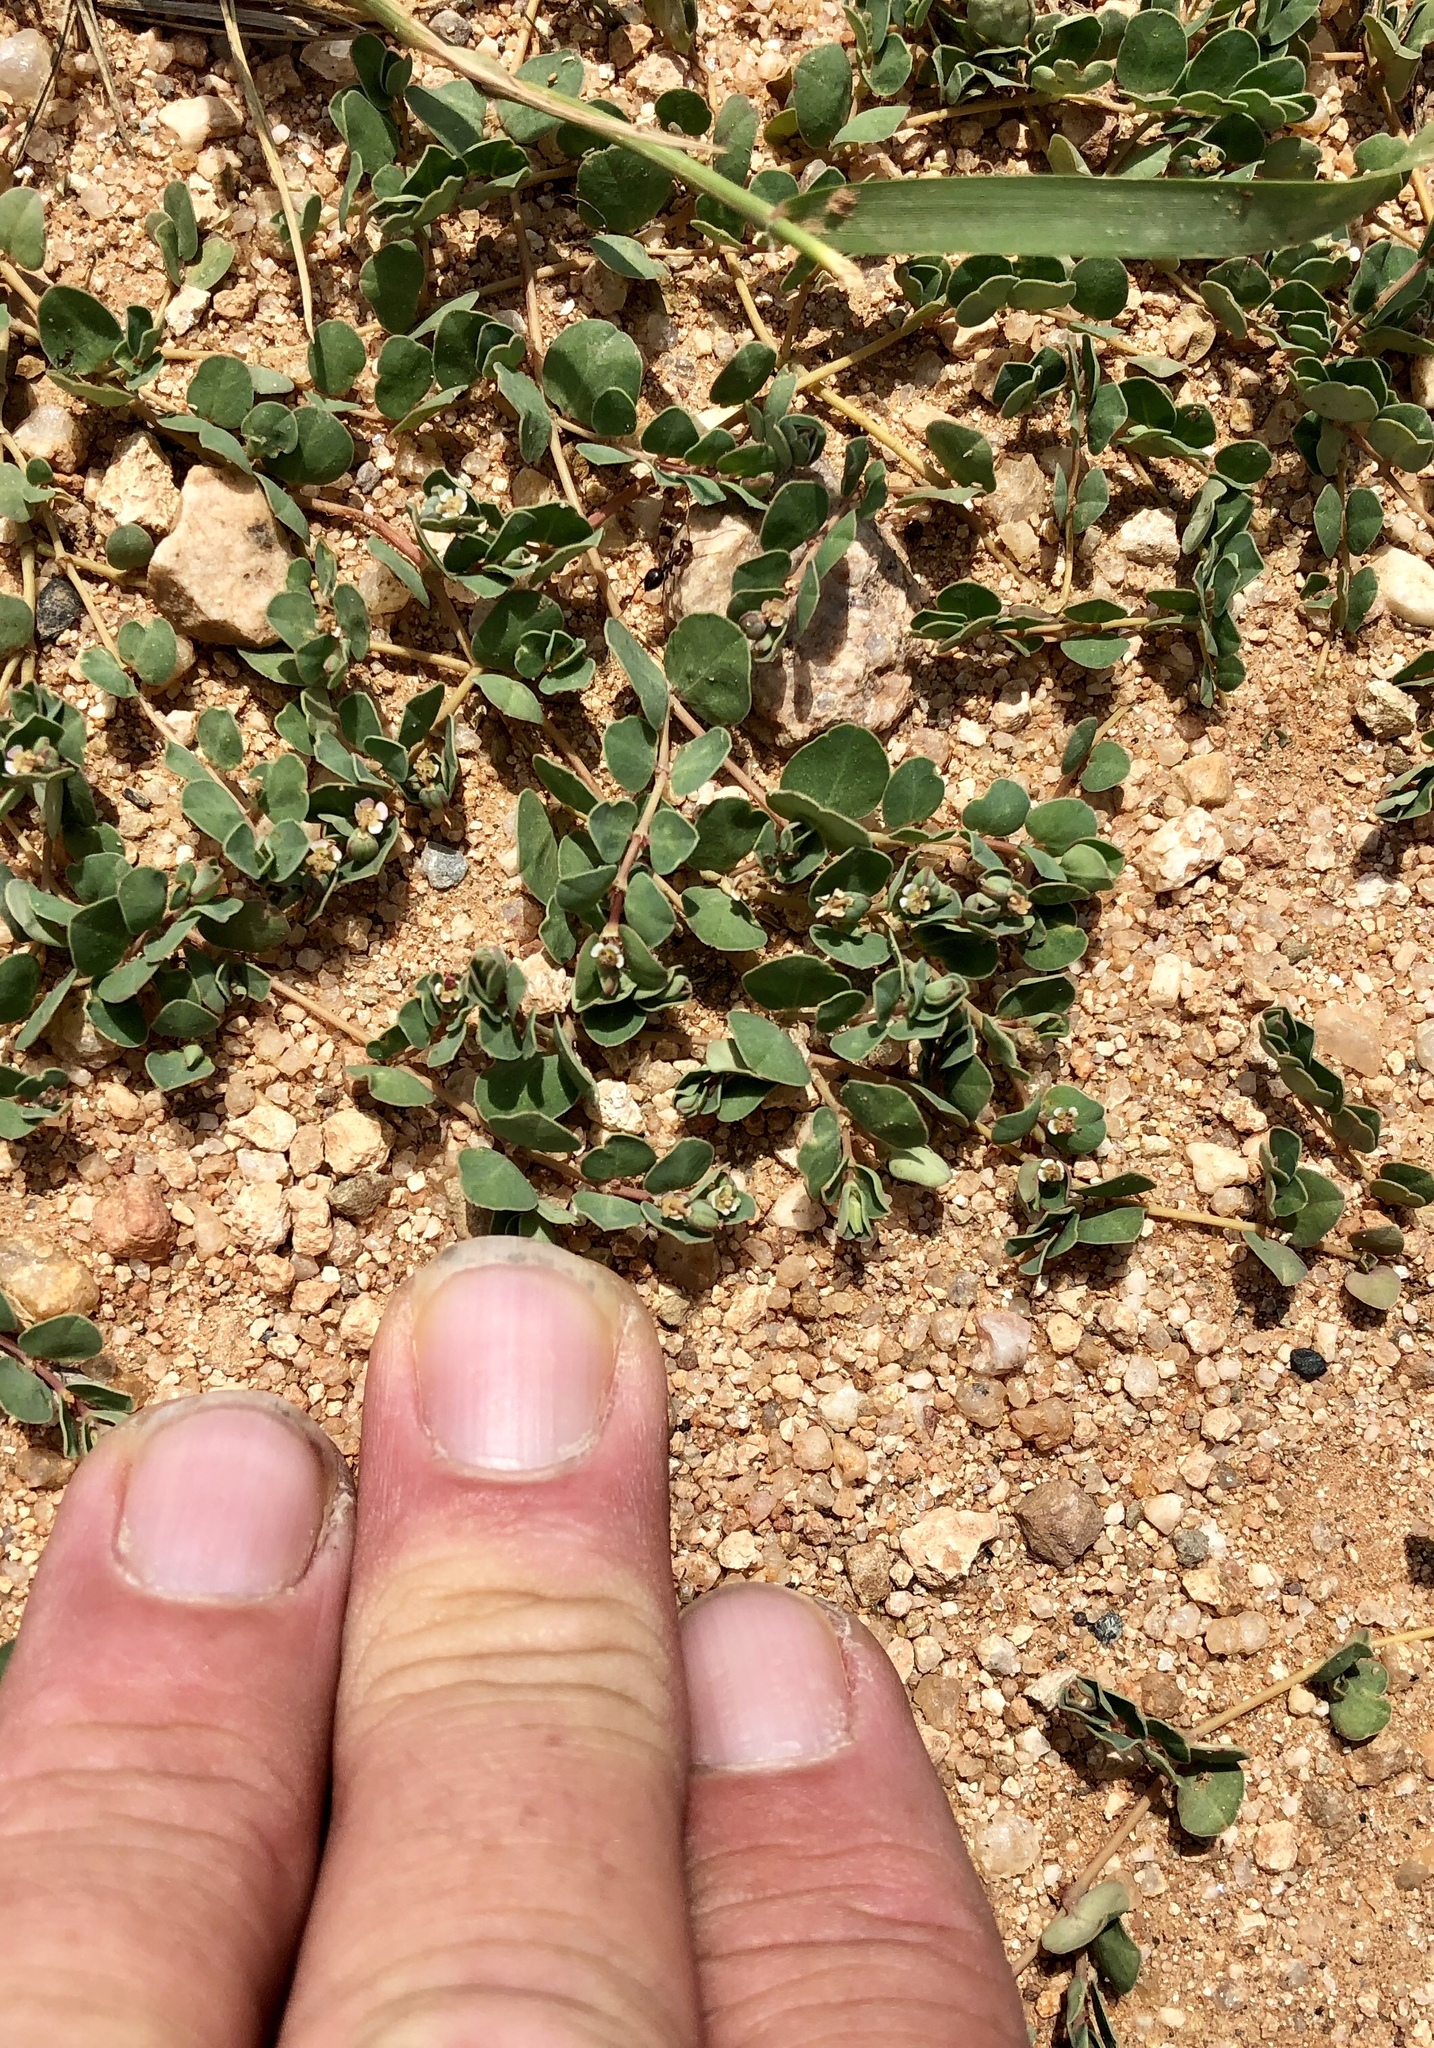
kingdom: Plantae
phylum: Tracheophyta
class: Magnoliopsida
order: Malpighiales
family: Euphorbiaceae
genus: Euphorbia
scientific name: Euphorbia albomarginata
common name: Whitemargin sandmat
